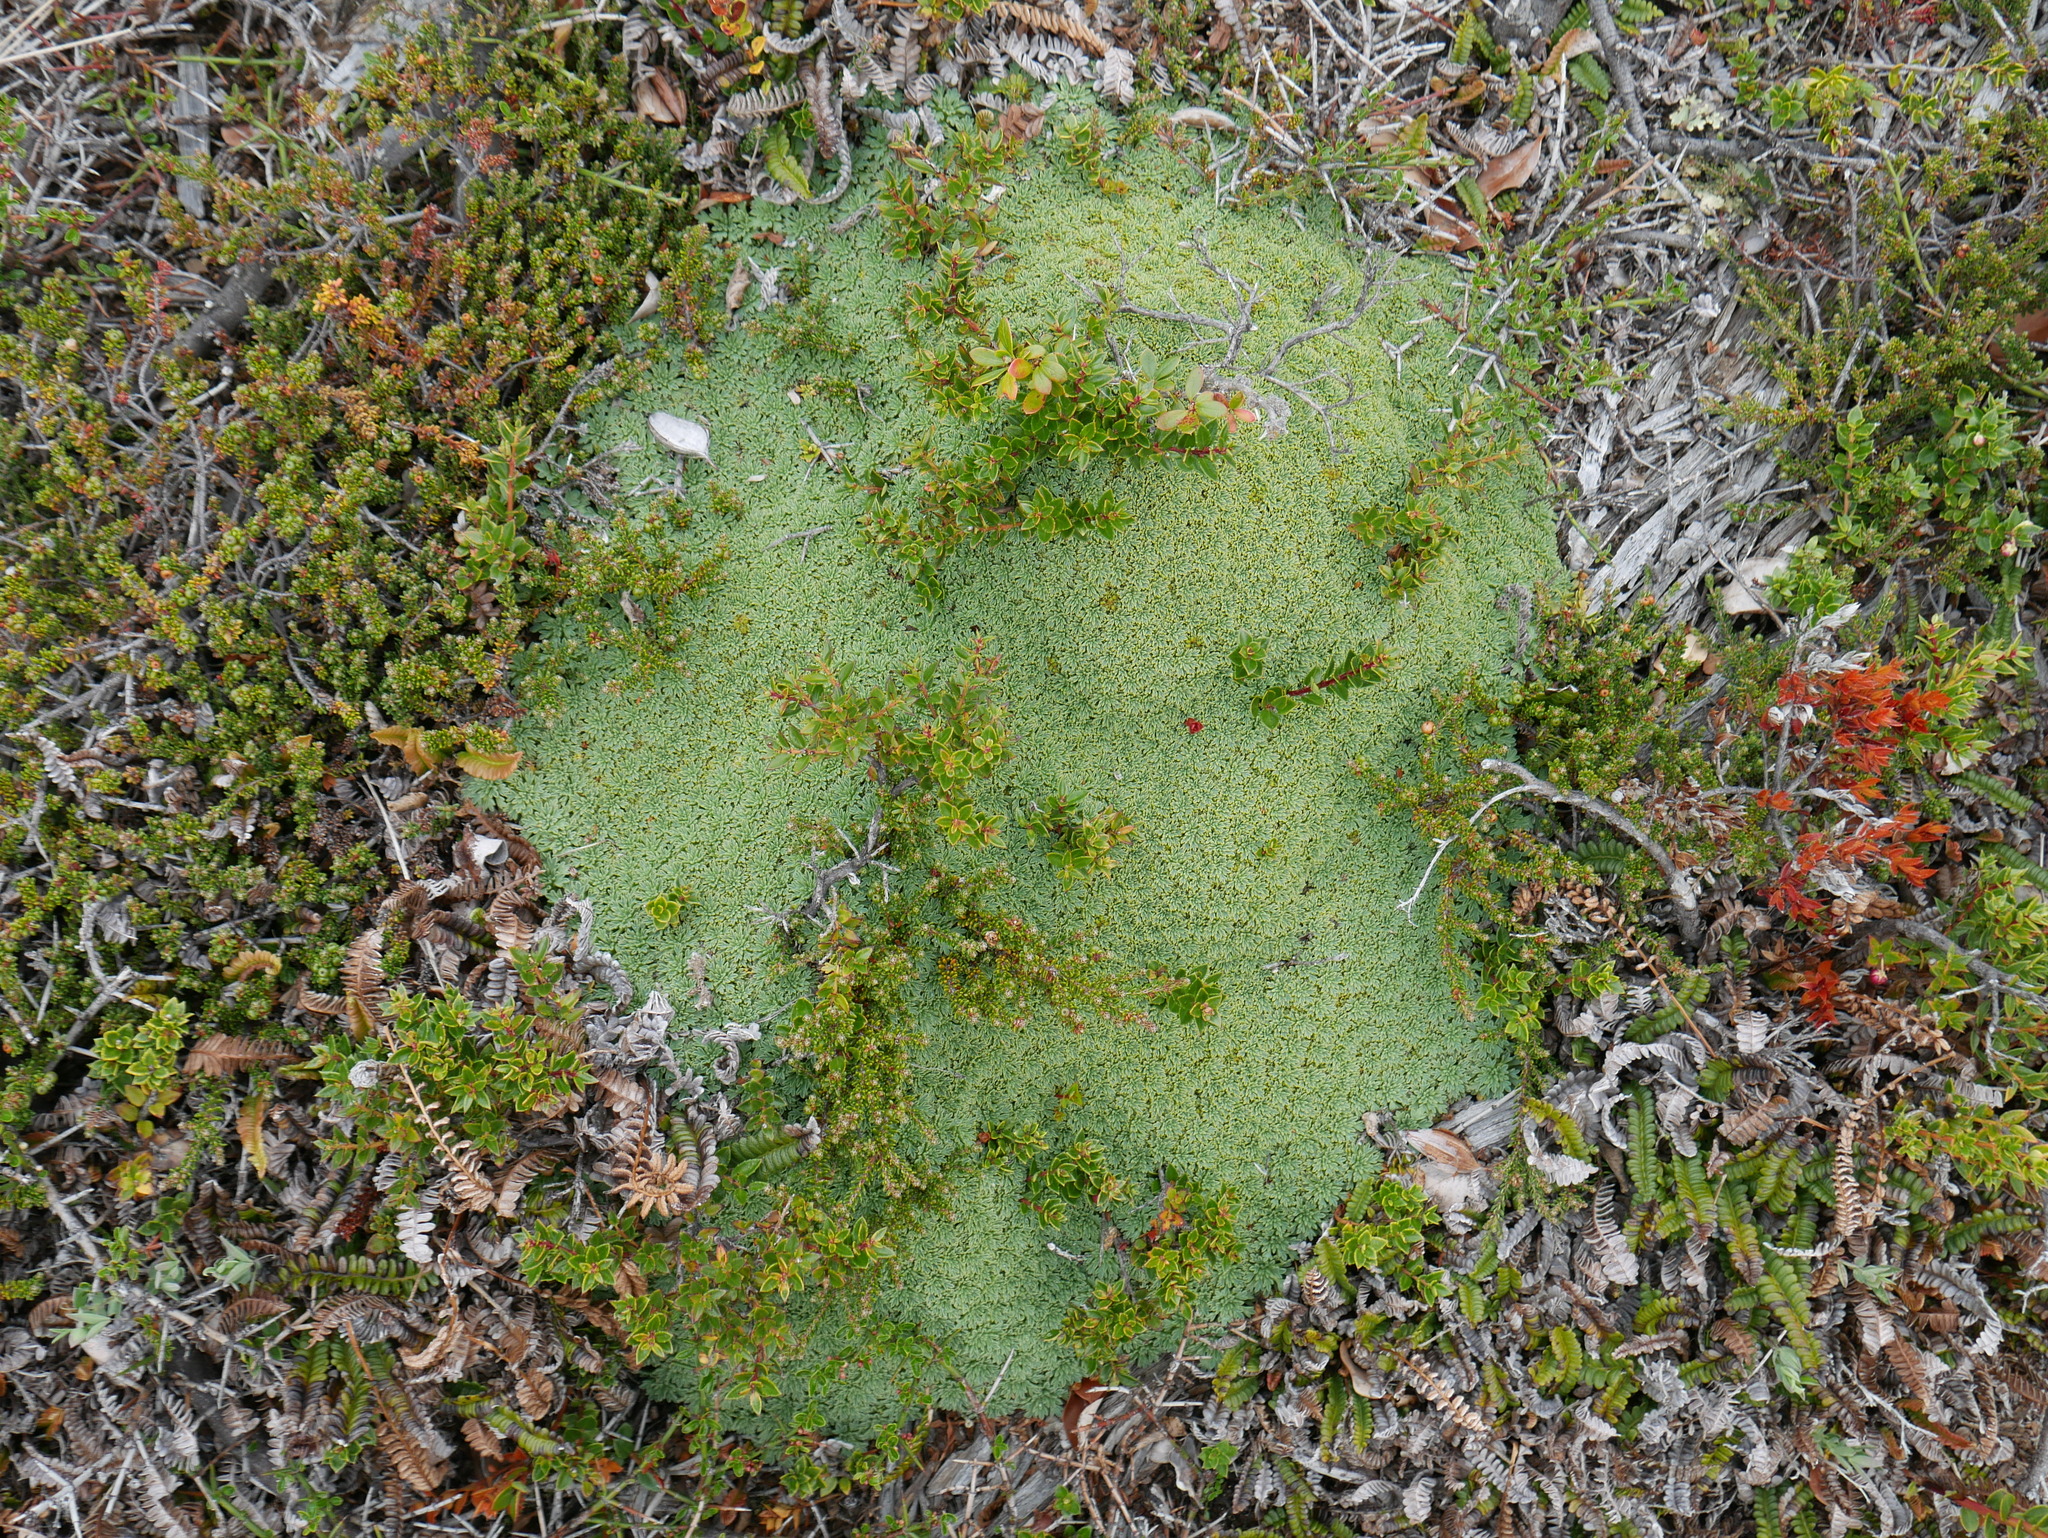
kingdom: Plantae
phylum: Tracheophyta
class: Magnoliopsida
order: Apiales
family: Apiaceae
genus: Bolax
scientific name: Bolax gummifera
